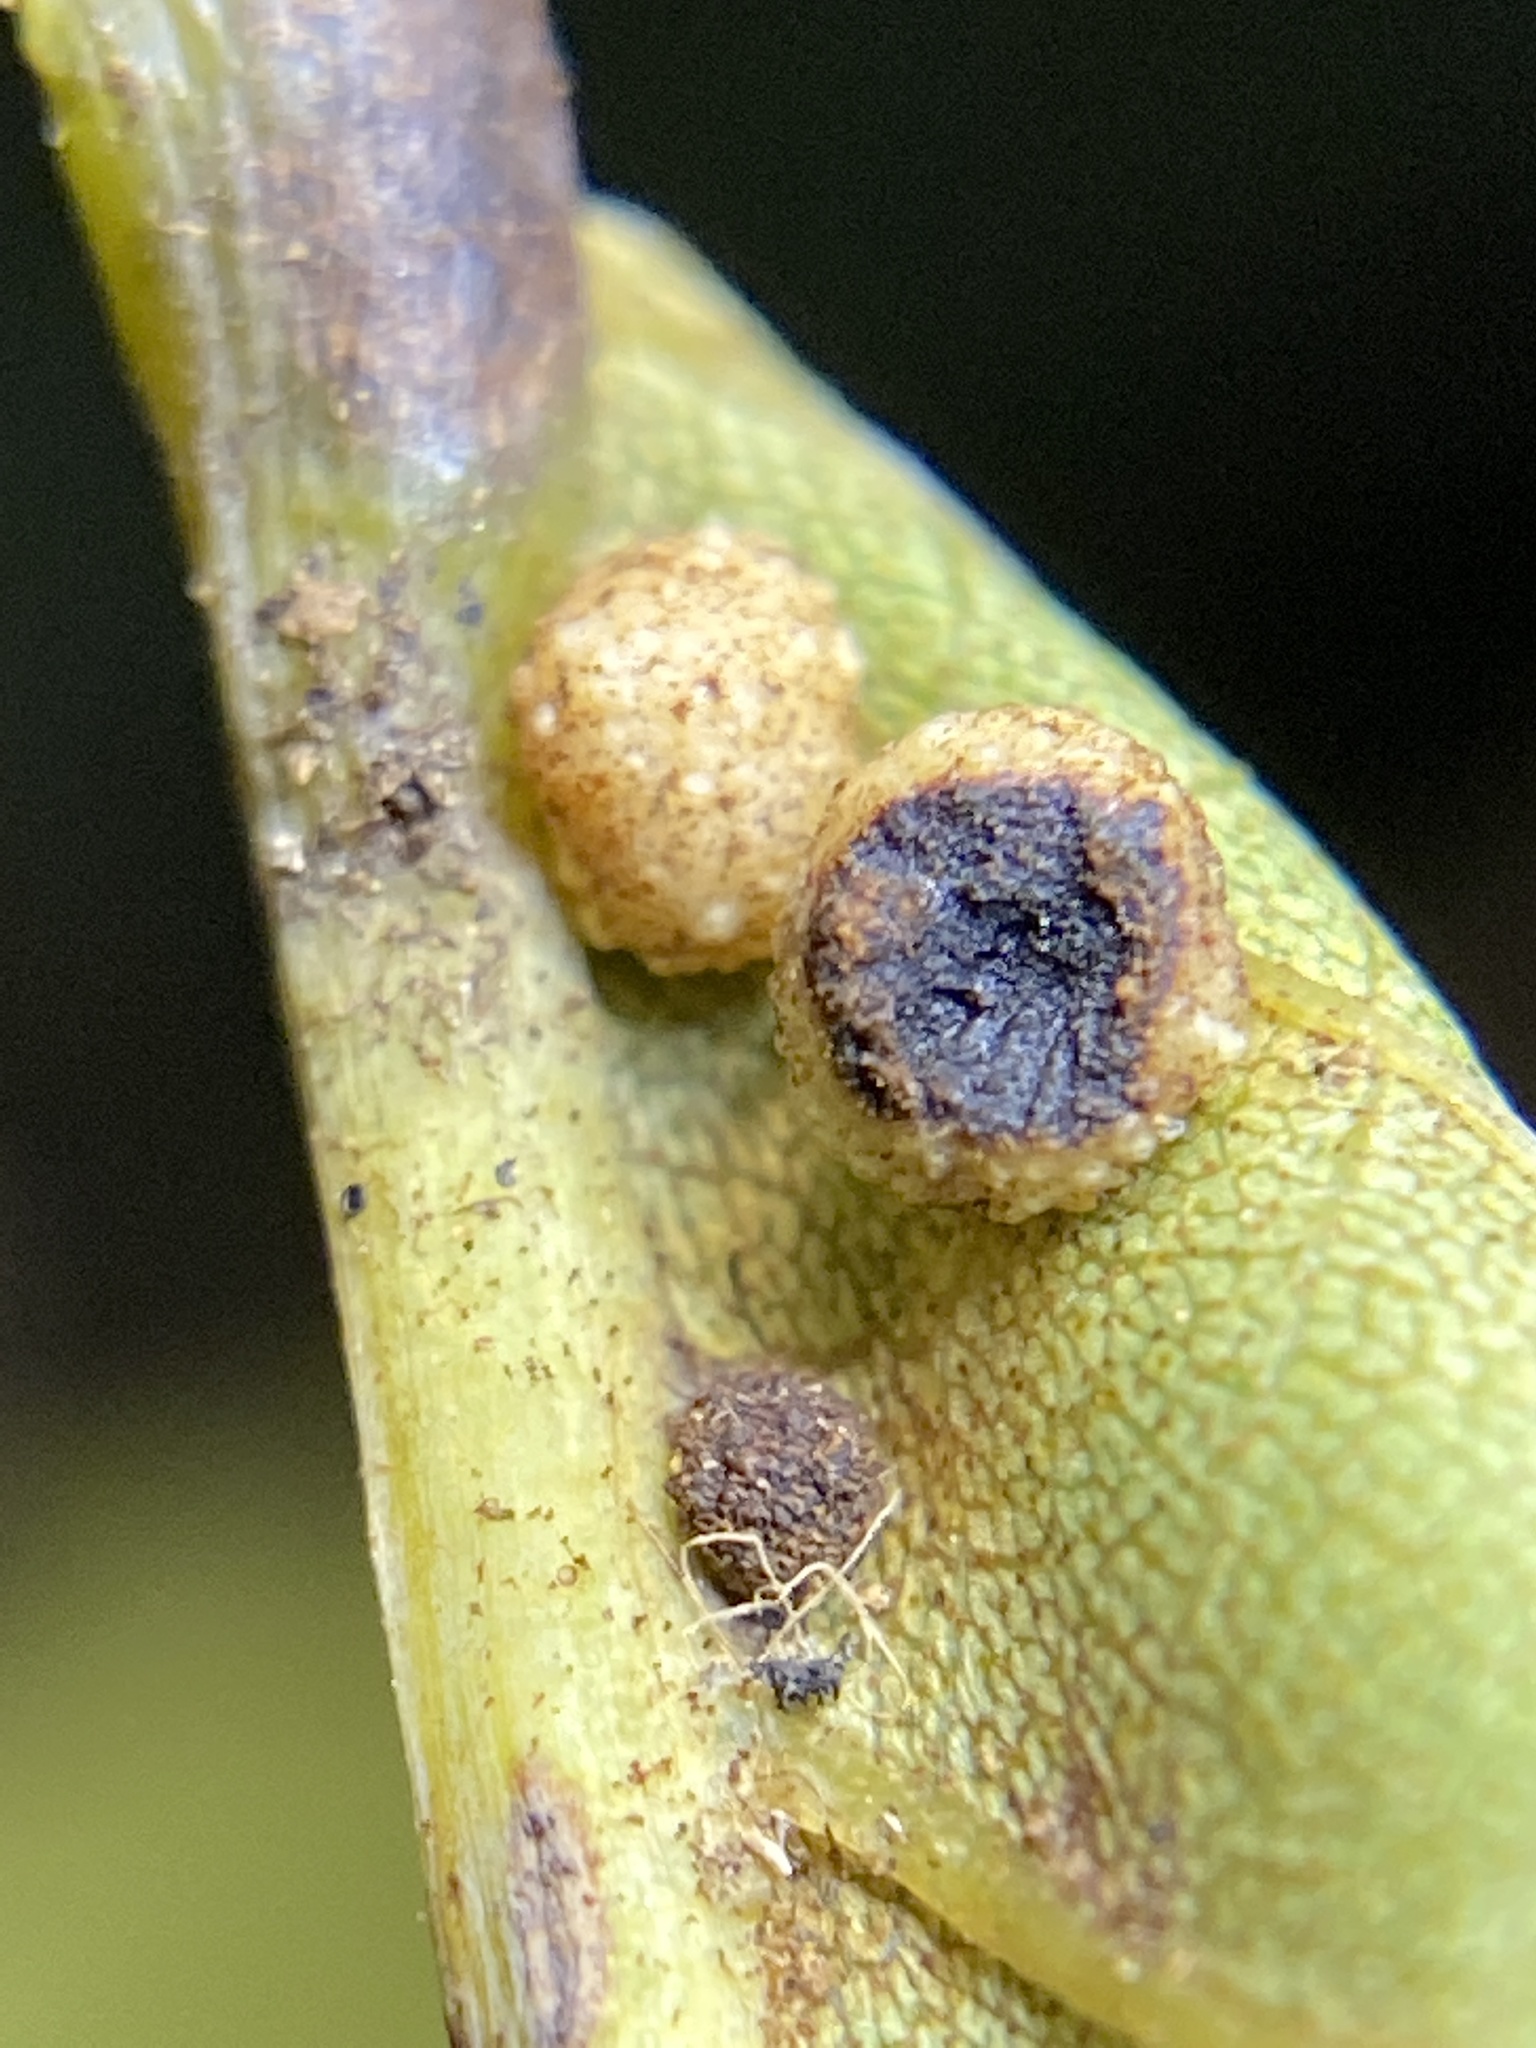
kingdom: Animalia
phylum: Arthropoda
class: Insecta
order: Diptera
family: Cecidomyiidae
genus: Caryomyia
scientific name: Caryomyia glebosa
